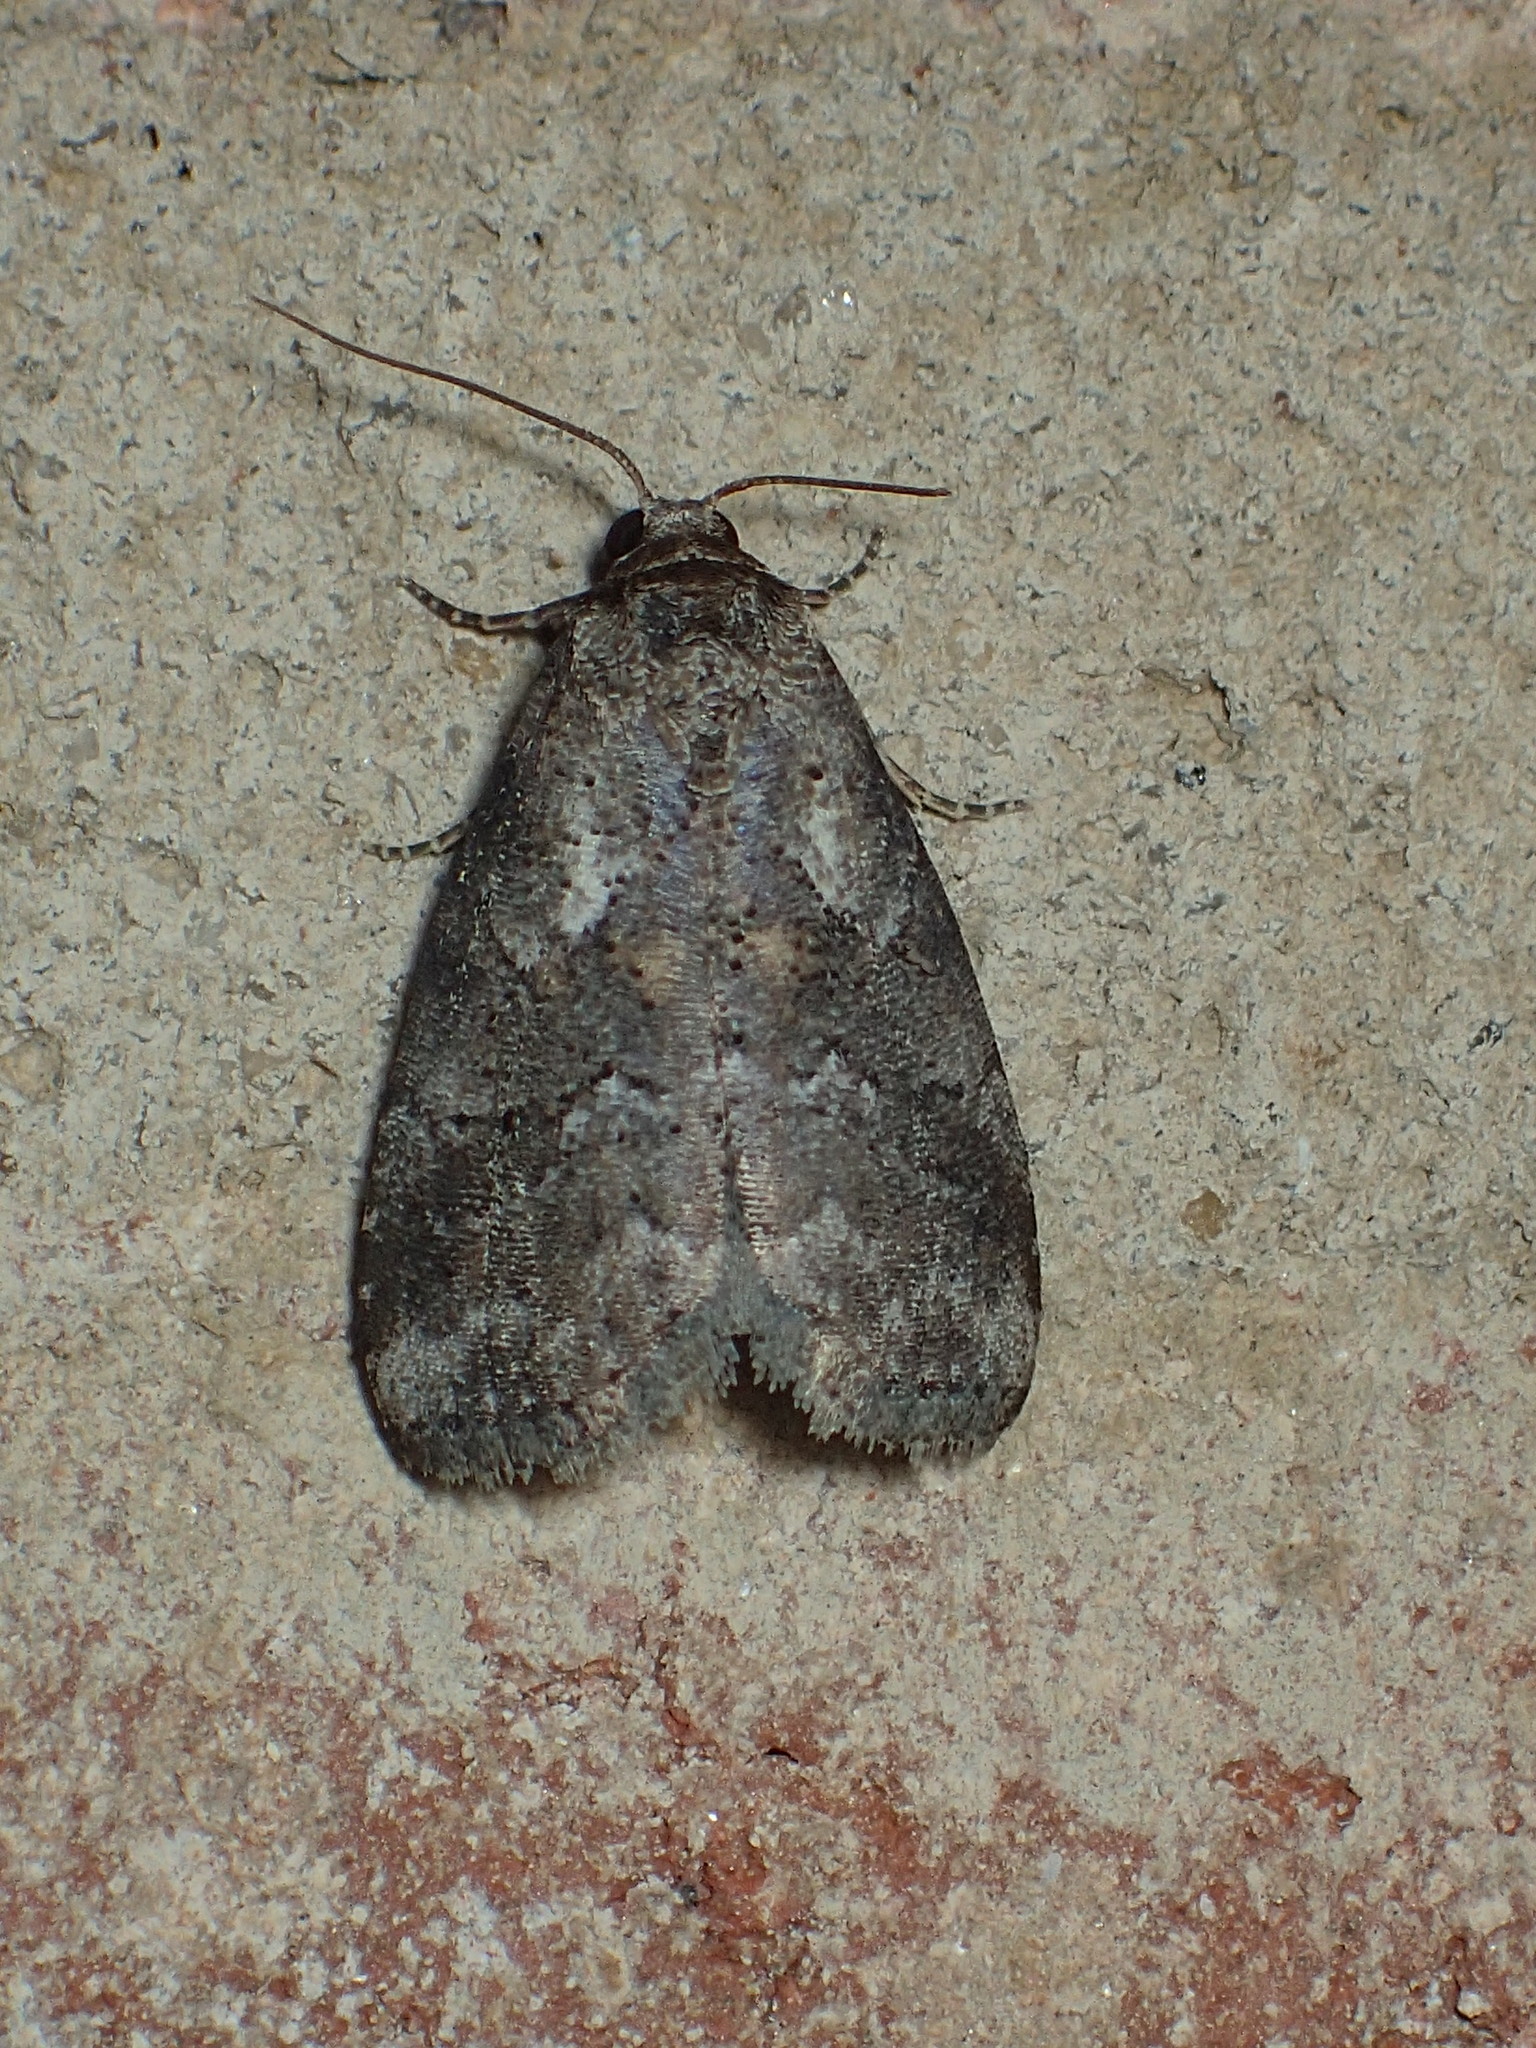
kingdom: Animalia
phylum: Arthropoda
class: Insecta
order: Lepidoptera
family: Erebidae
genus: Hyperstrotia
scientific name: Hyperstrotia nana
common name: White-lined graylet
